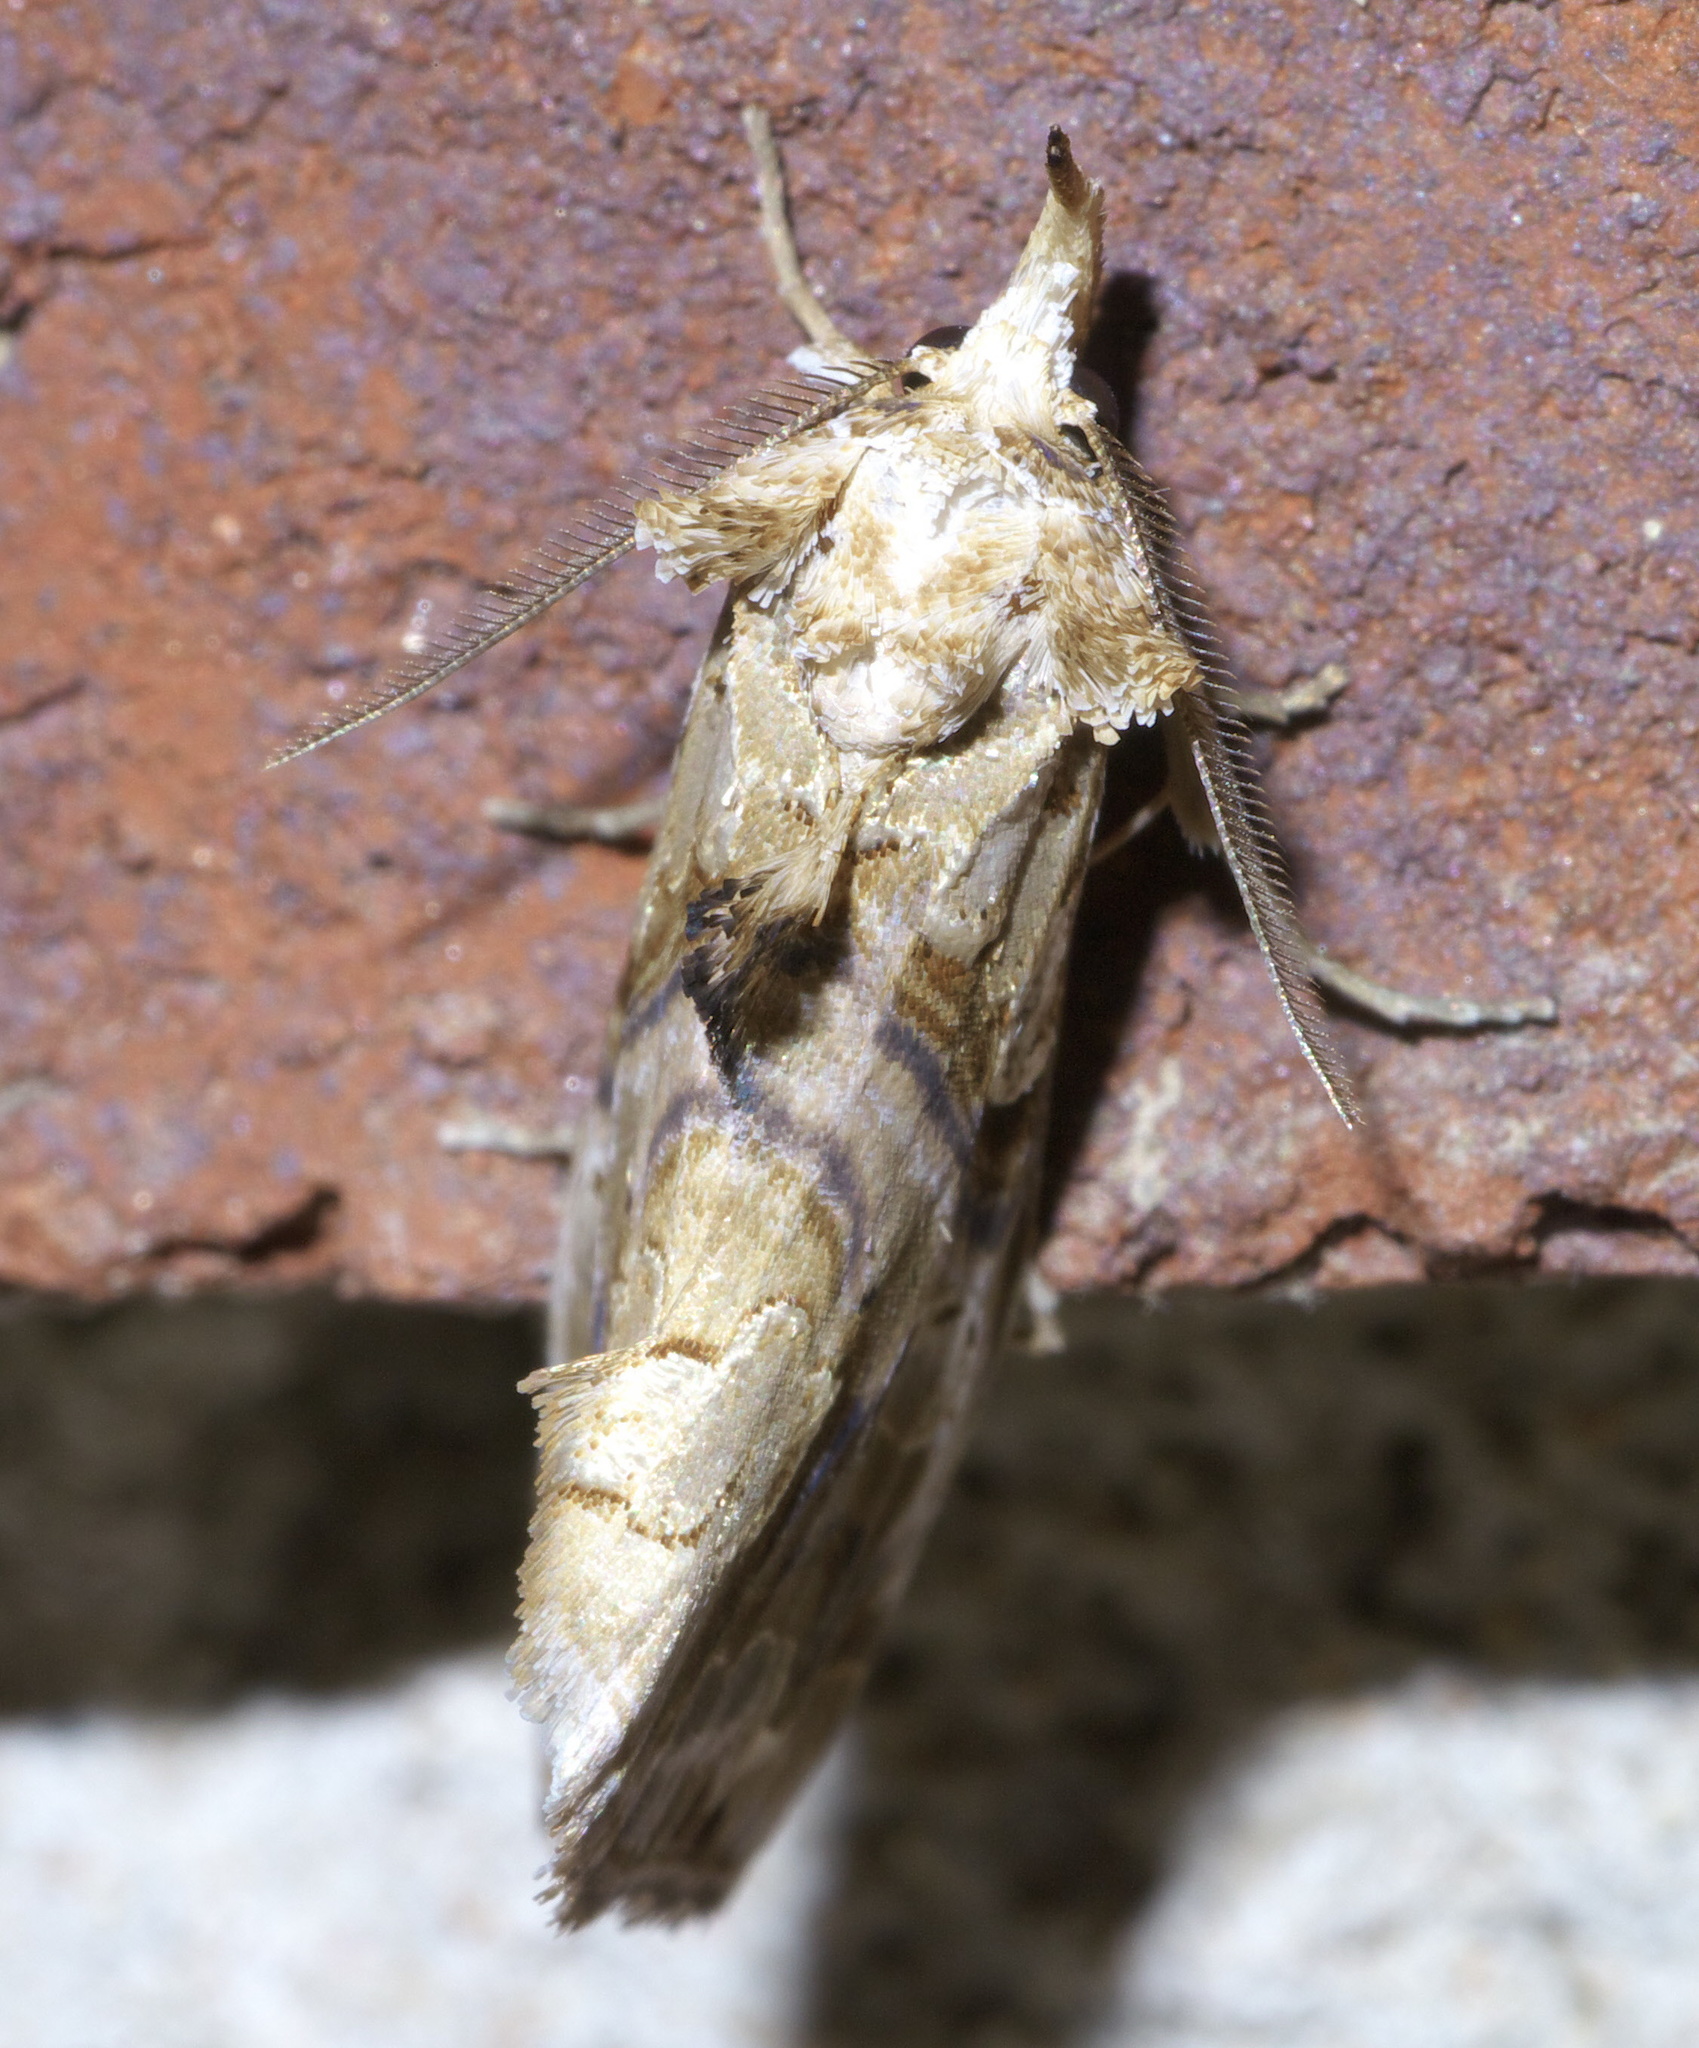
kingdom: Animalia
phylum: Arthropoda
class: Insecta
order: Lepidoptera
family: Erebidae
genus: Plusiodonta
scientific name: Plusiodonta compressipalpis
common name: Moonseed moth
